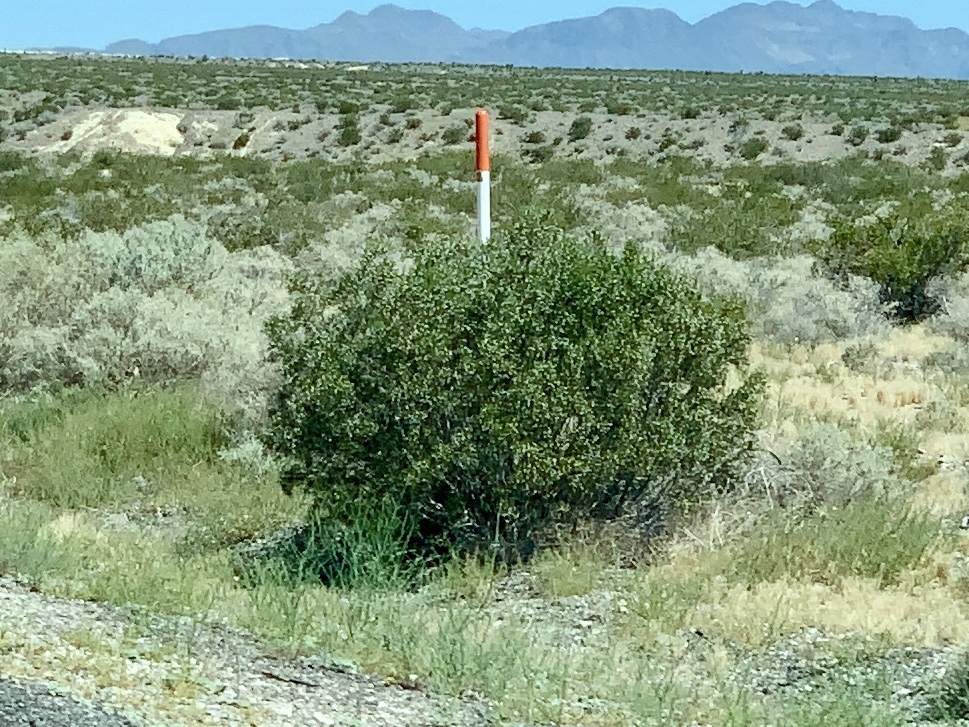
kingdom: Plantae
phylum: Tracheophyta
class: Magnoliopsida
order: Zygophyllales
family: Zygophyllaceae
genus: Larrea
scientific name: Larrea tridentata
